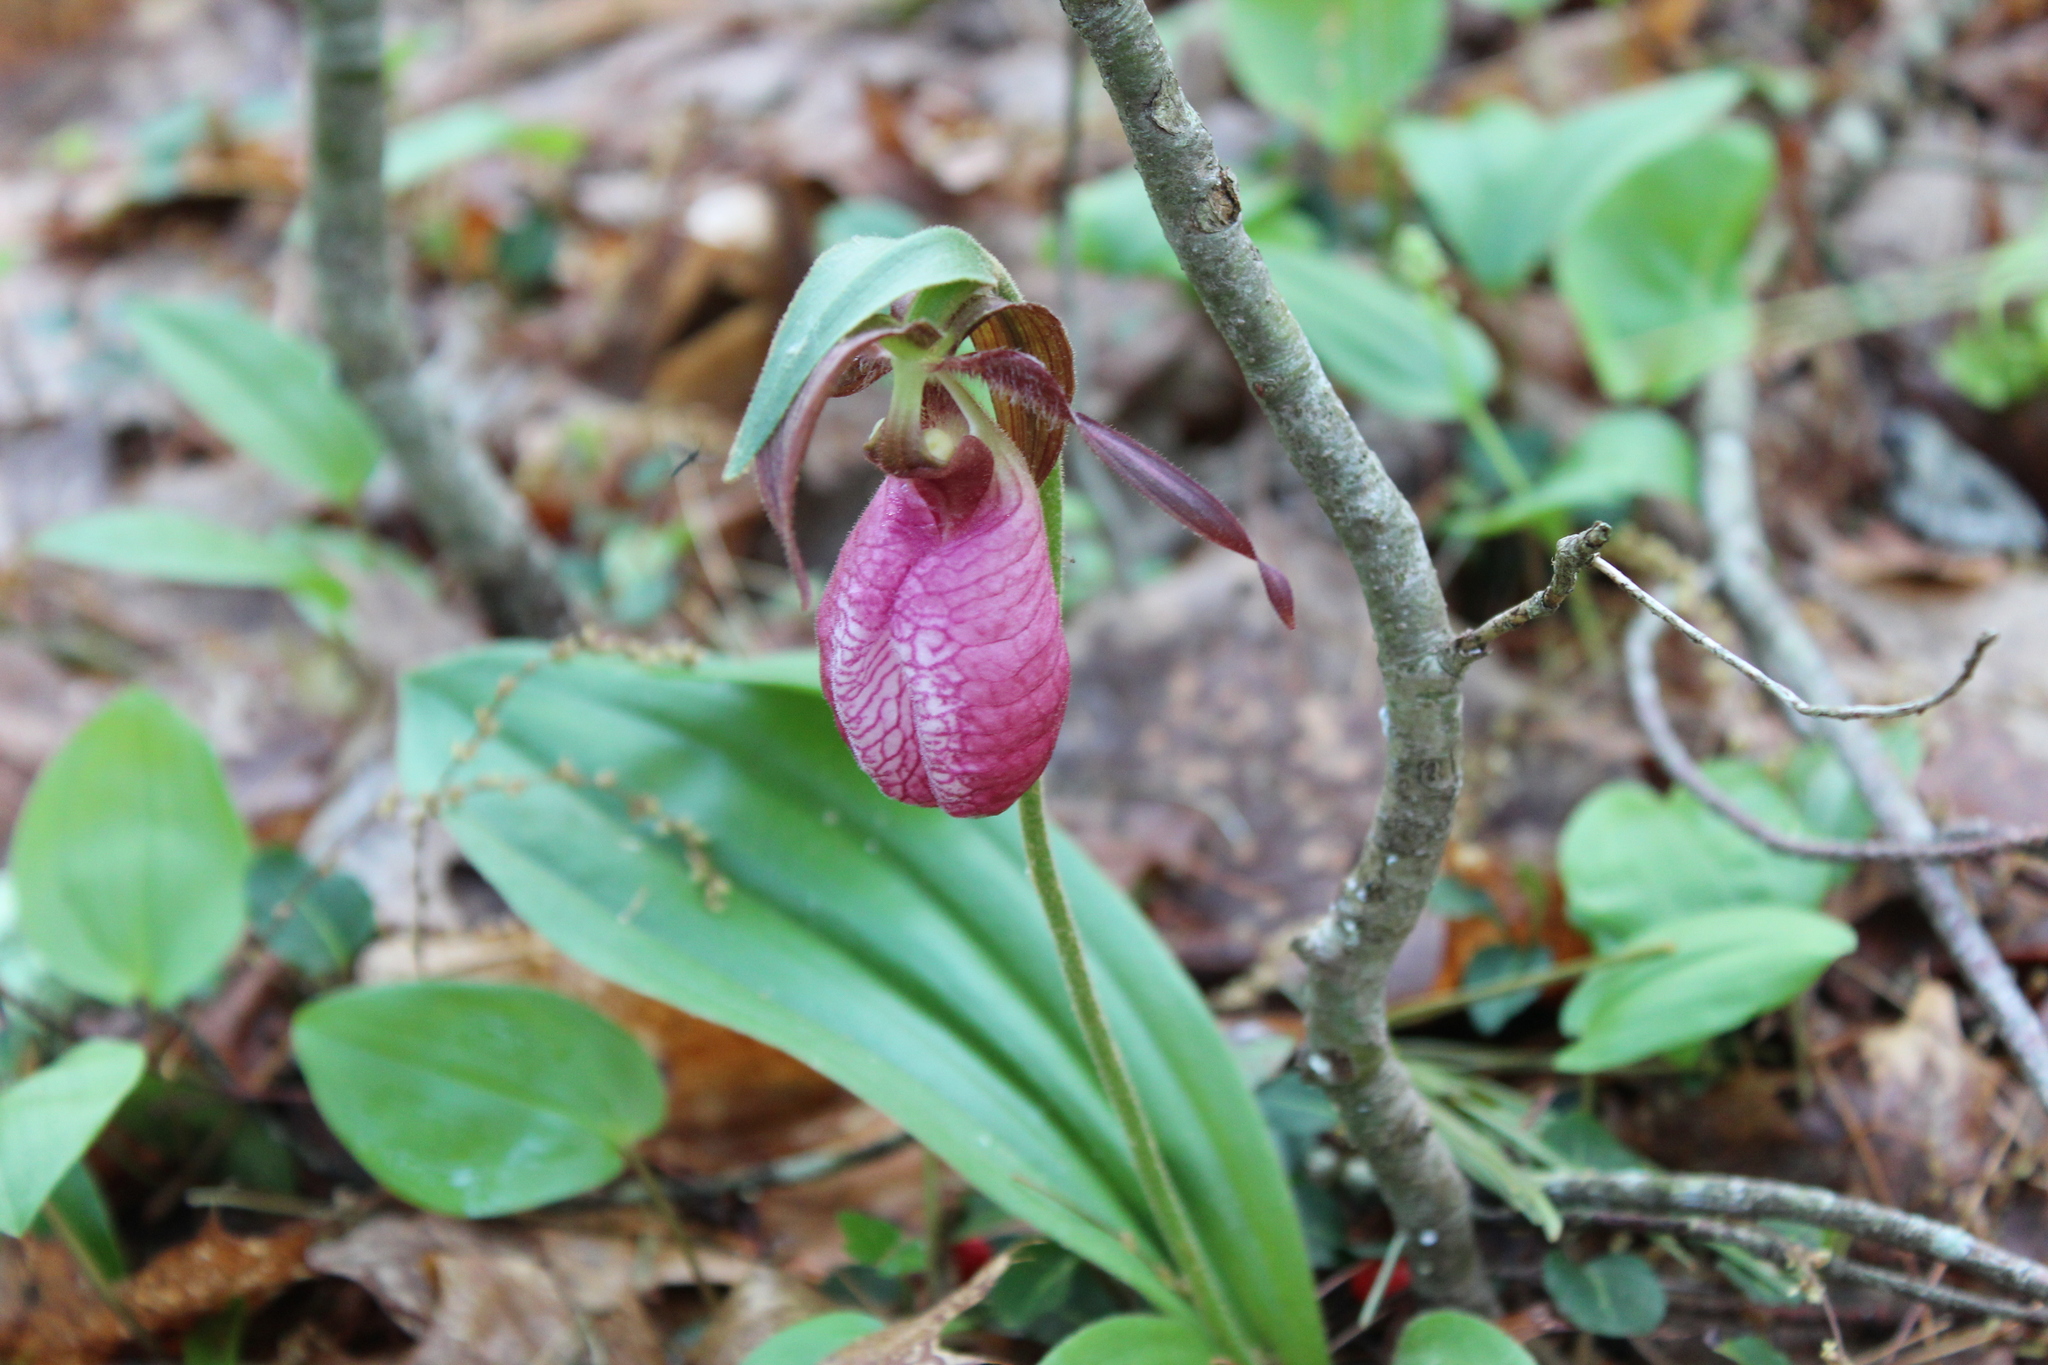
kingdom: Plantae
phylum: Tracheophyta
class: Liliopsida
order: Asparagales
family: Orchidaceae
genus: Cypripedium
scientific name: Cypripedium acaule
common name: Pink lady's-slipper
